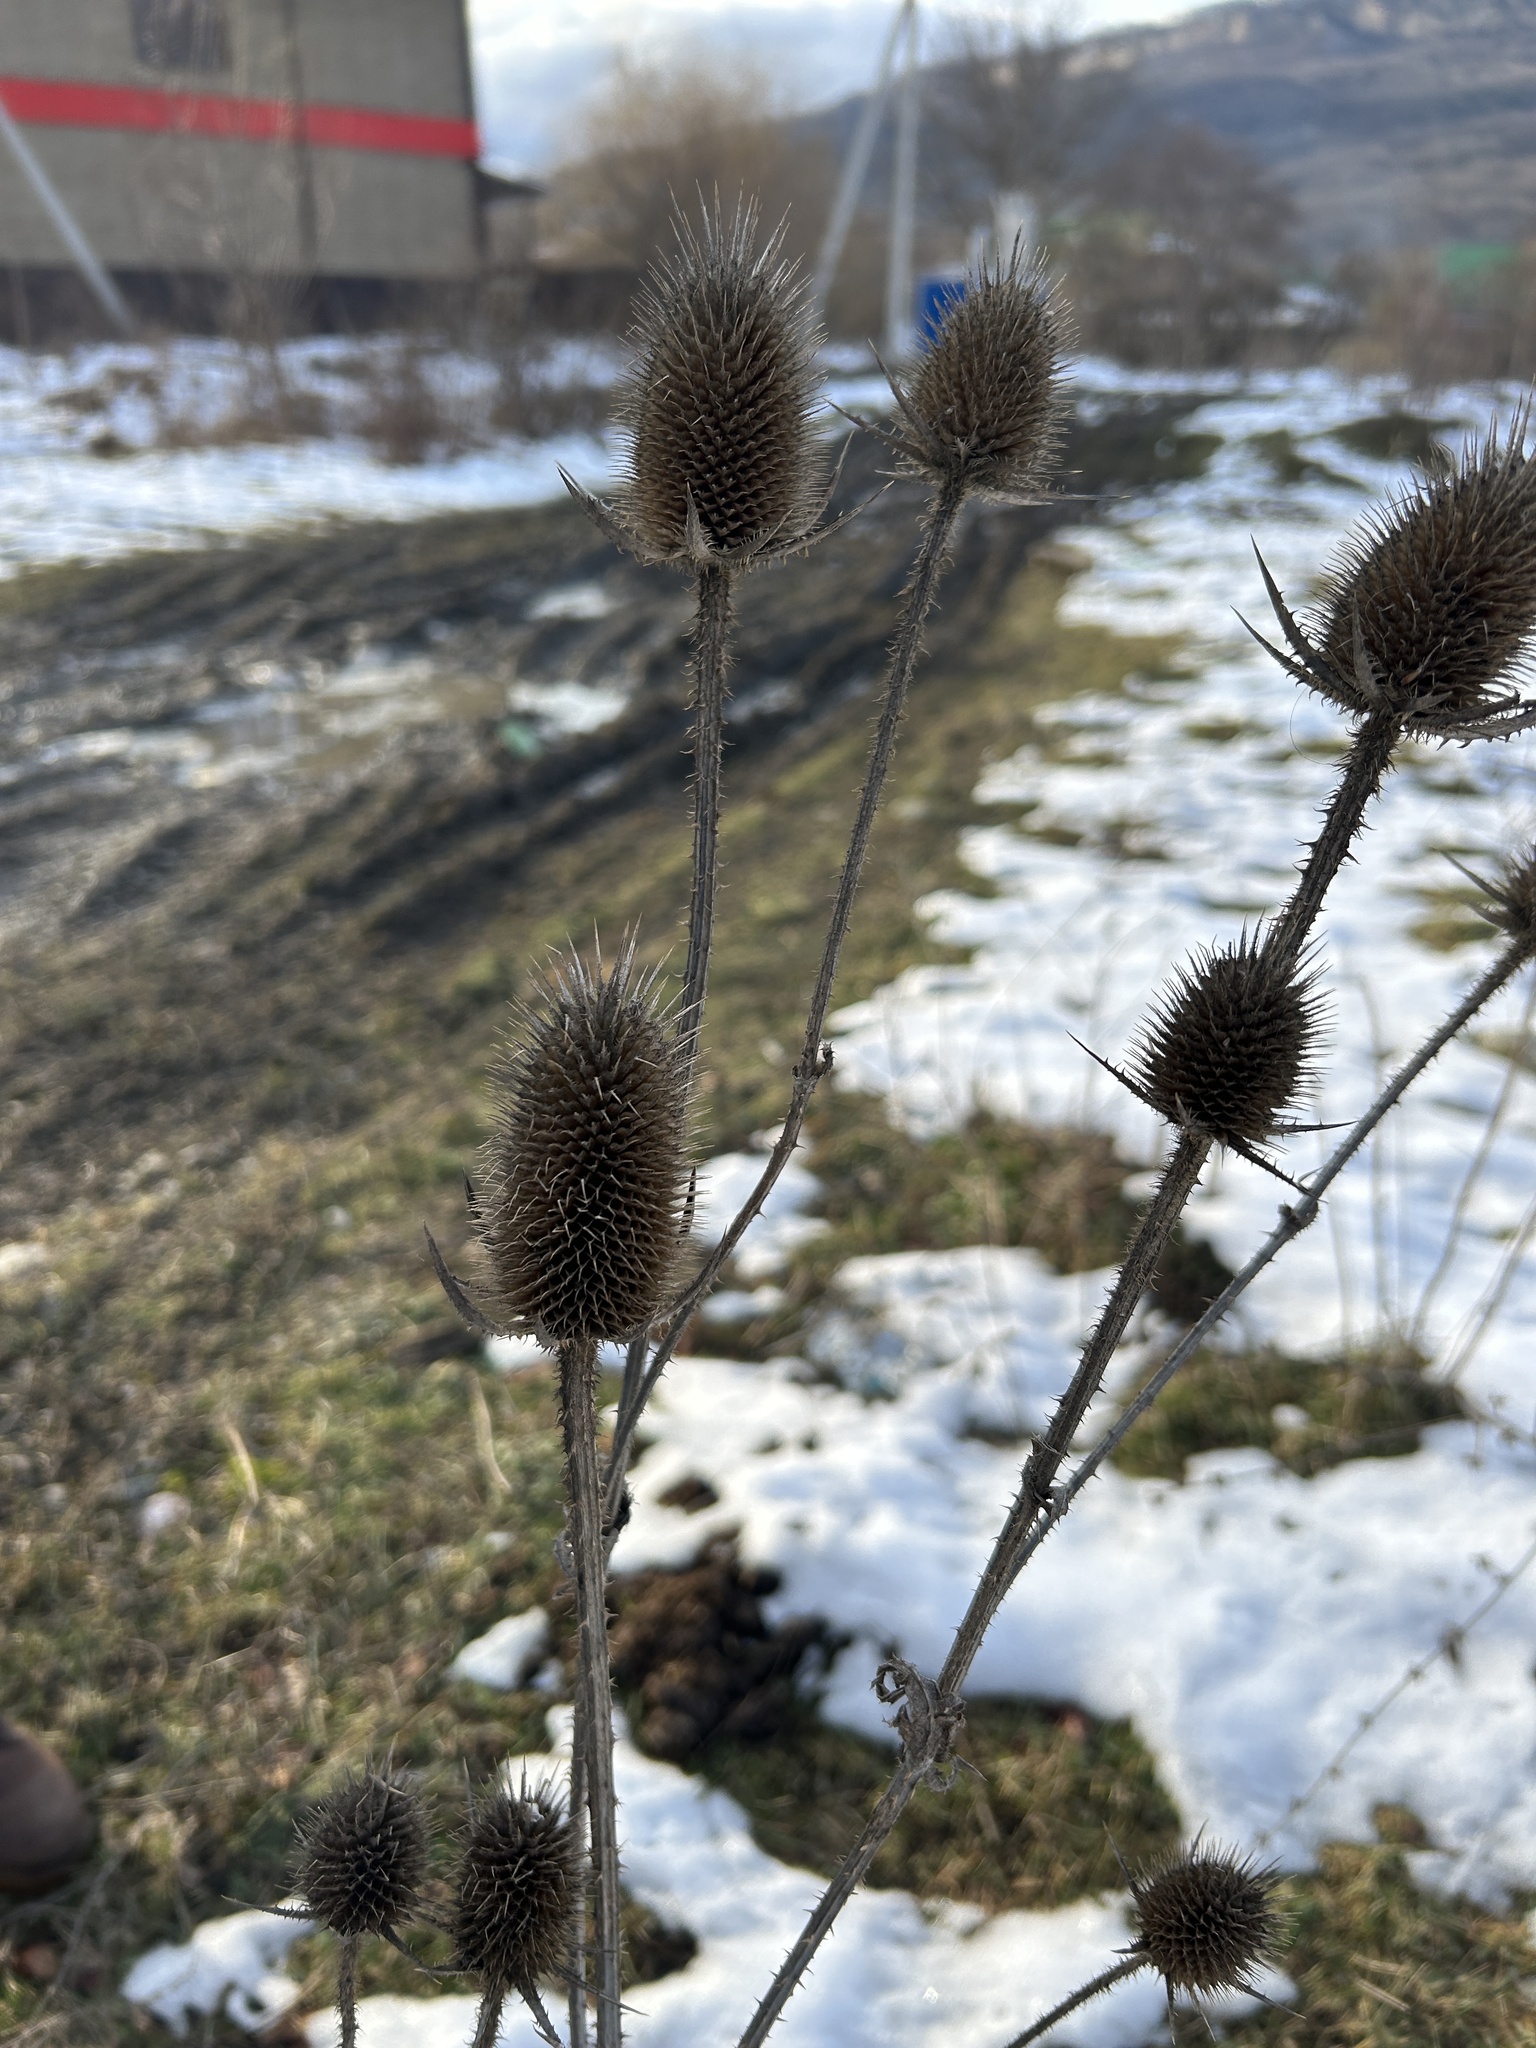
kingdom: Plantae
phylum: Tracheophyta
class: Magnoliopsida
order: Dipsacales
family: Caprifoliaceae
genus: Dipsacus
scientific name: Dipsacus laciniatus
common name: Cut-leaved teasel
